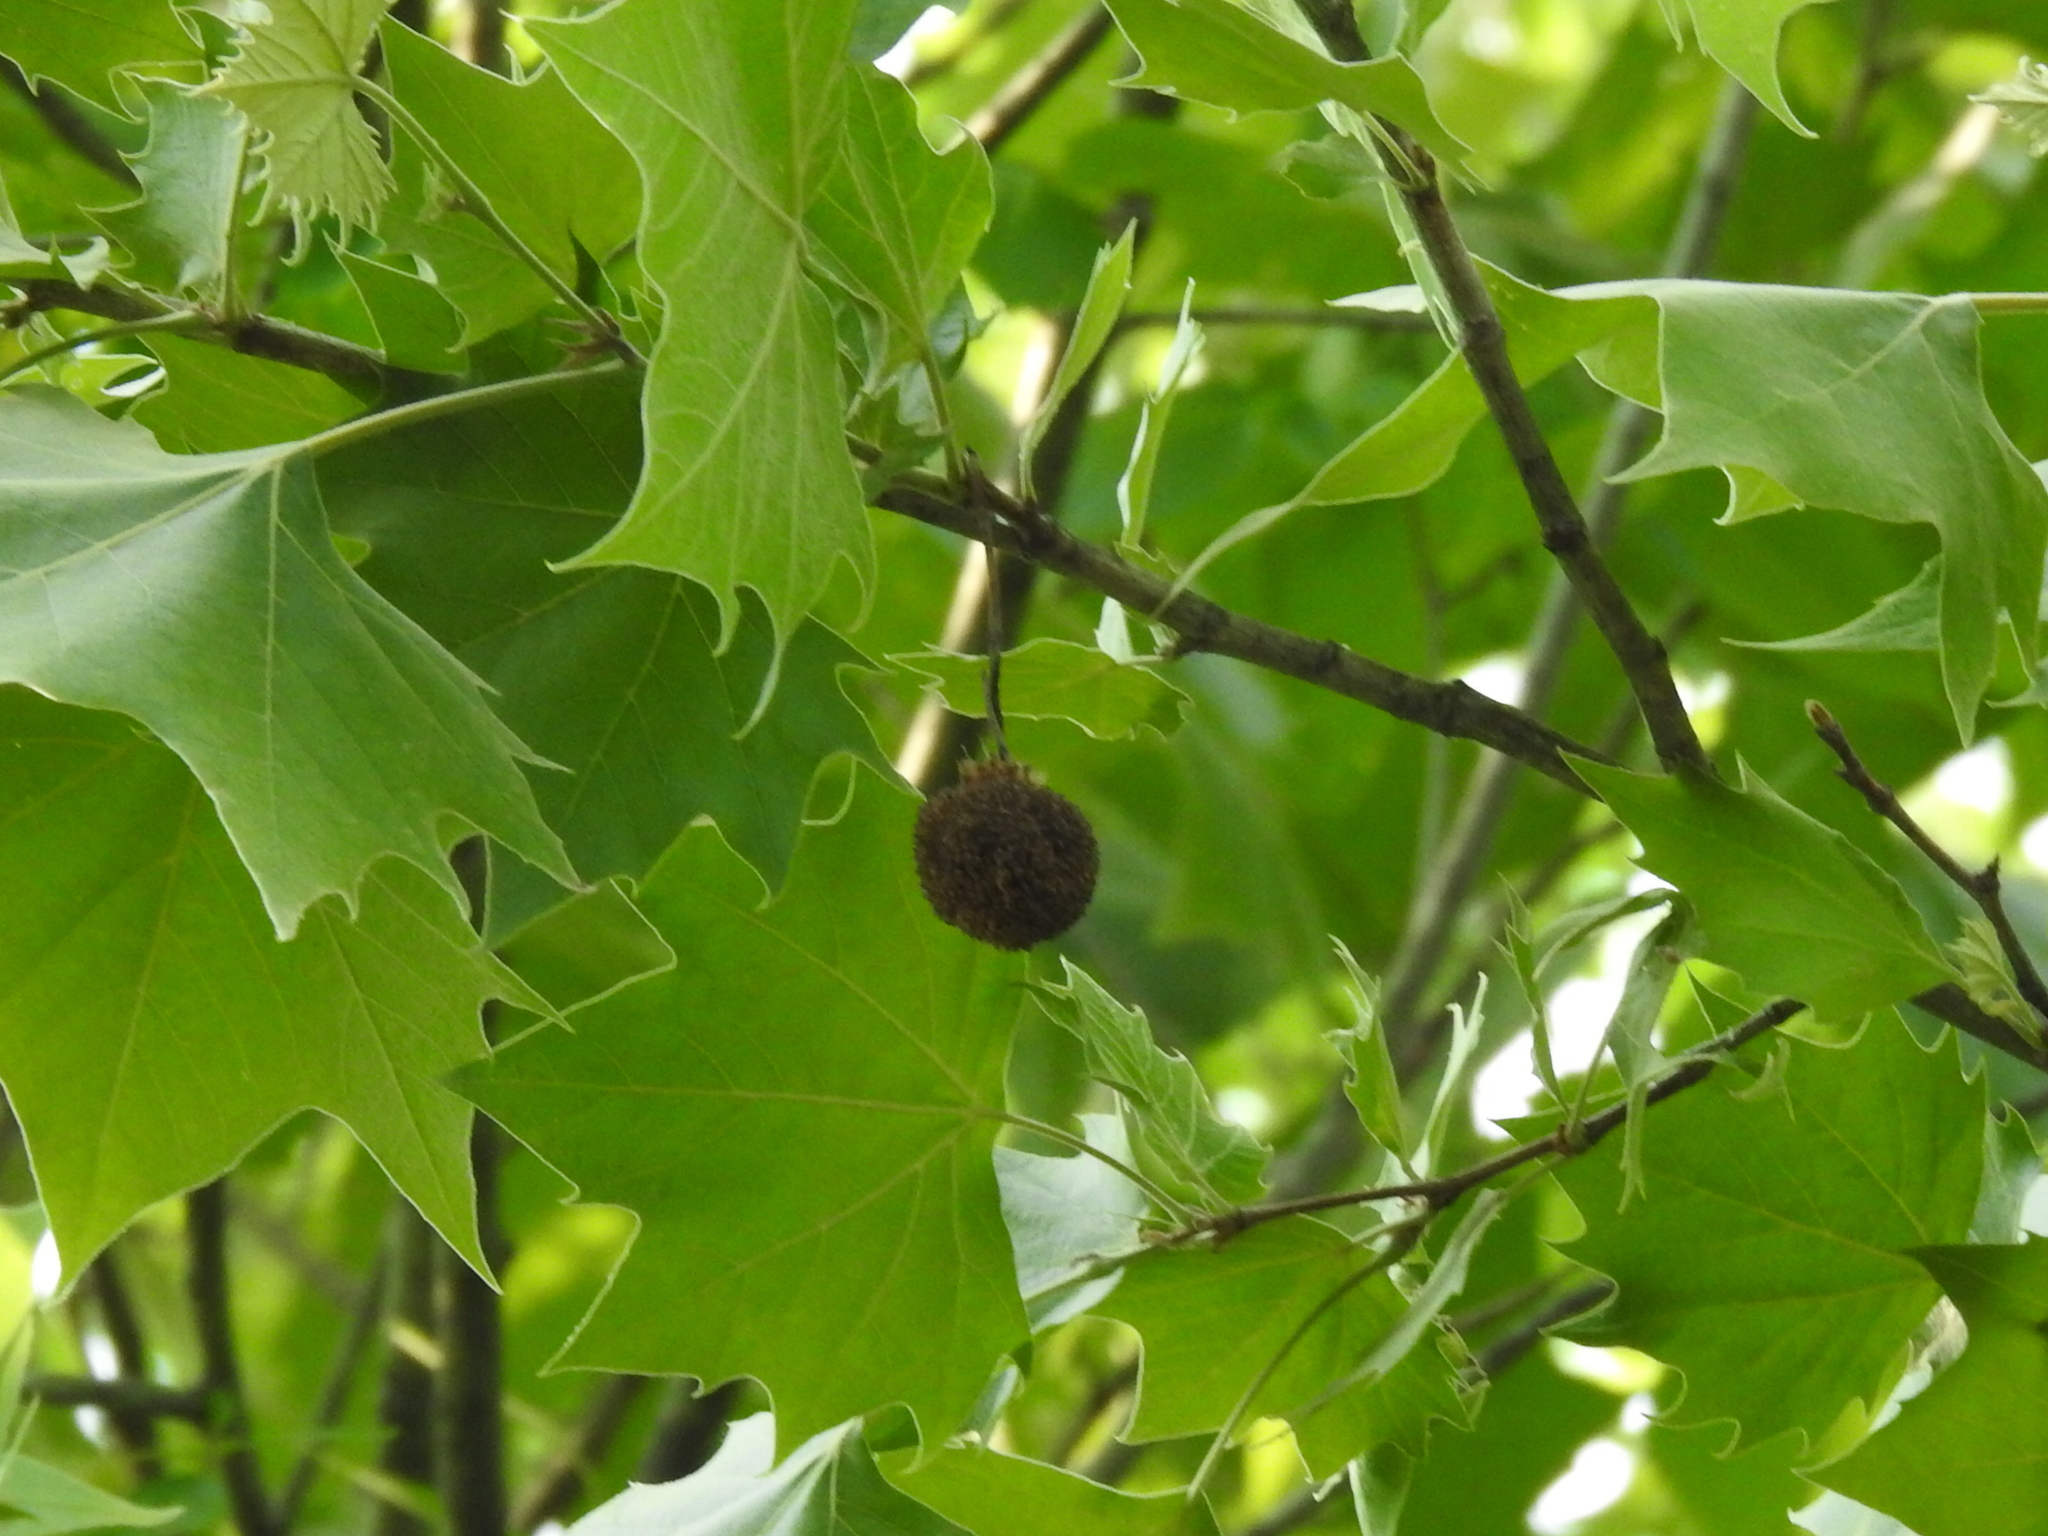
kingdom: Plantae
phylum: Tracheophyta
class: Magnoliopsida
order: Proteales
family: Platanaceae
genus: Platanus
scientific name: Platanus occidentalis
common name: American sycamore
